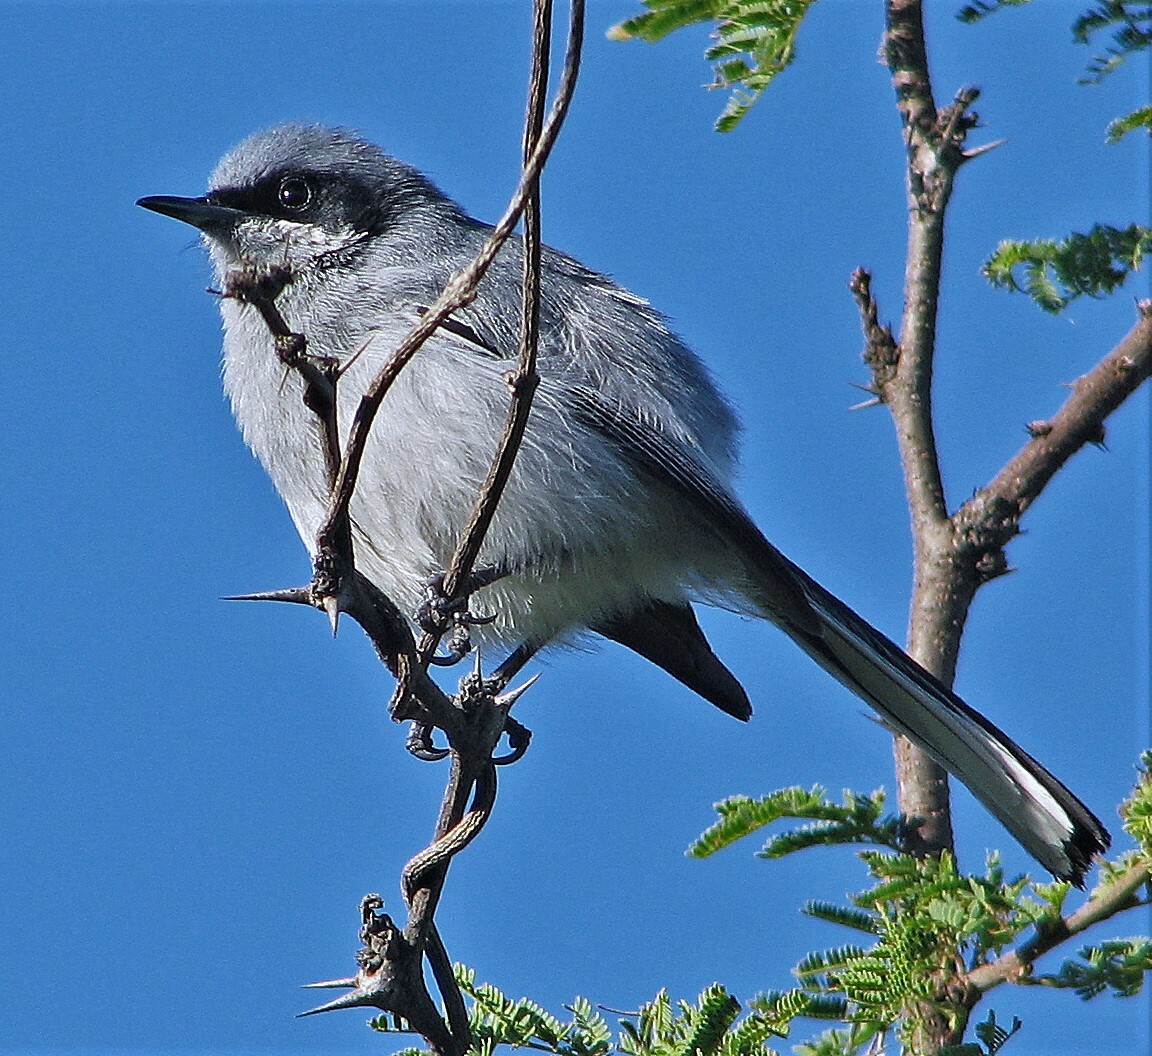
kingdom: Animalia
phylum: Chordata
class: Aves
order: Passeriformes
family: Polioptilidae
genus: Polioptila
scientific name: Polioptila dumicola
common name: Masked gnatcatcher
